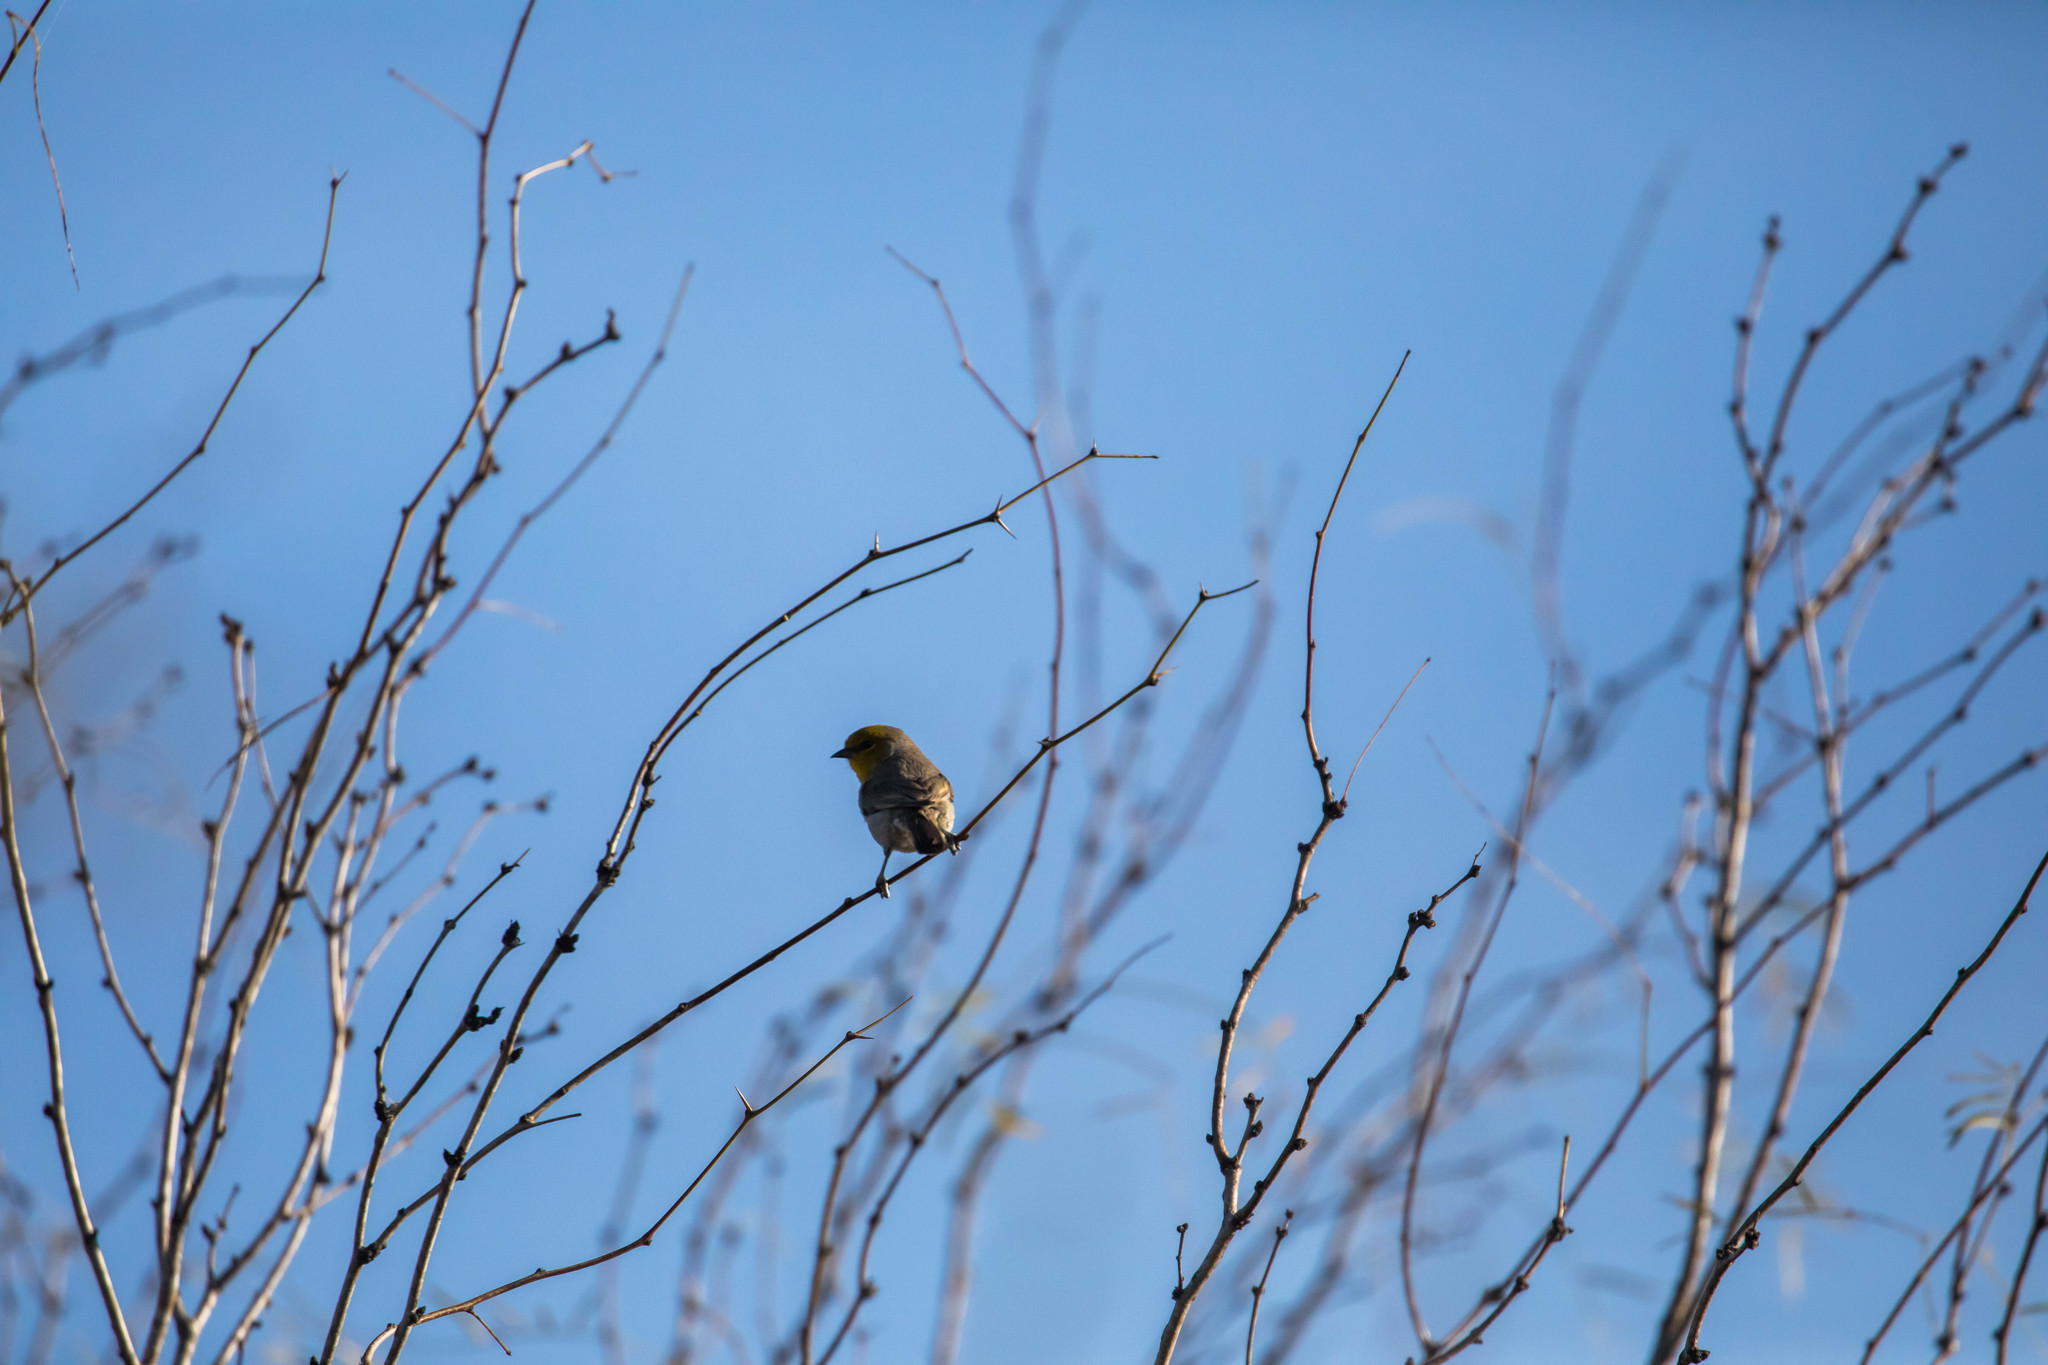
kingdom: Animalia
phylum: Chordata
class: Aves
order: Passeriformes
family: Remizidae
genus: Auriparus
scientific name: Auriparus flaviceps
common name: Verdin
